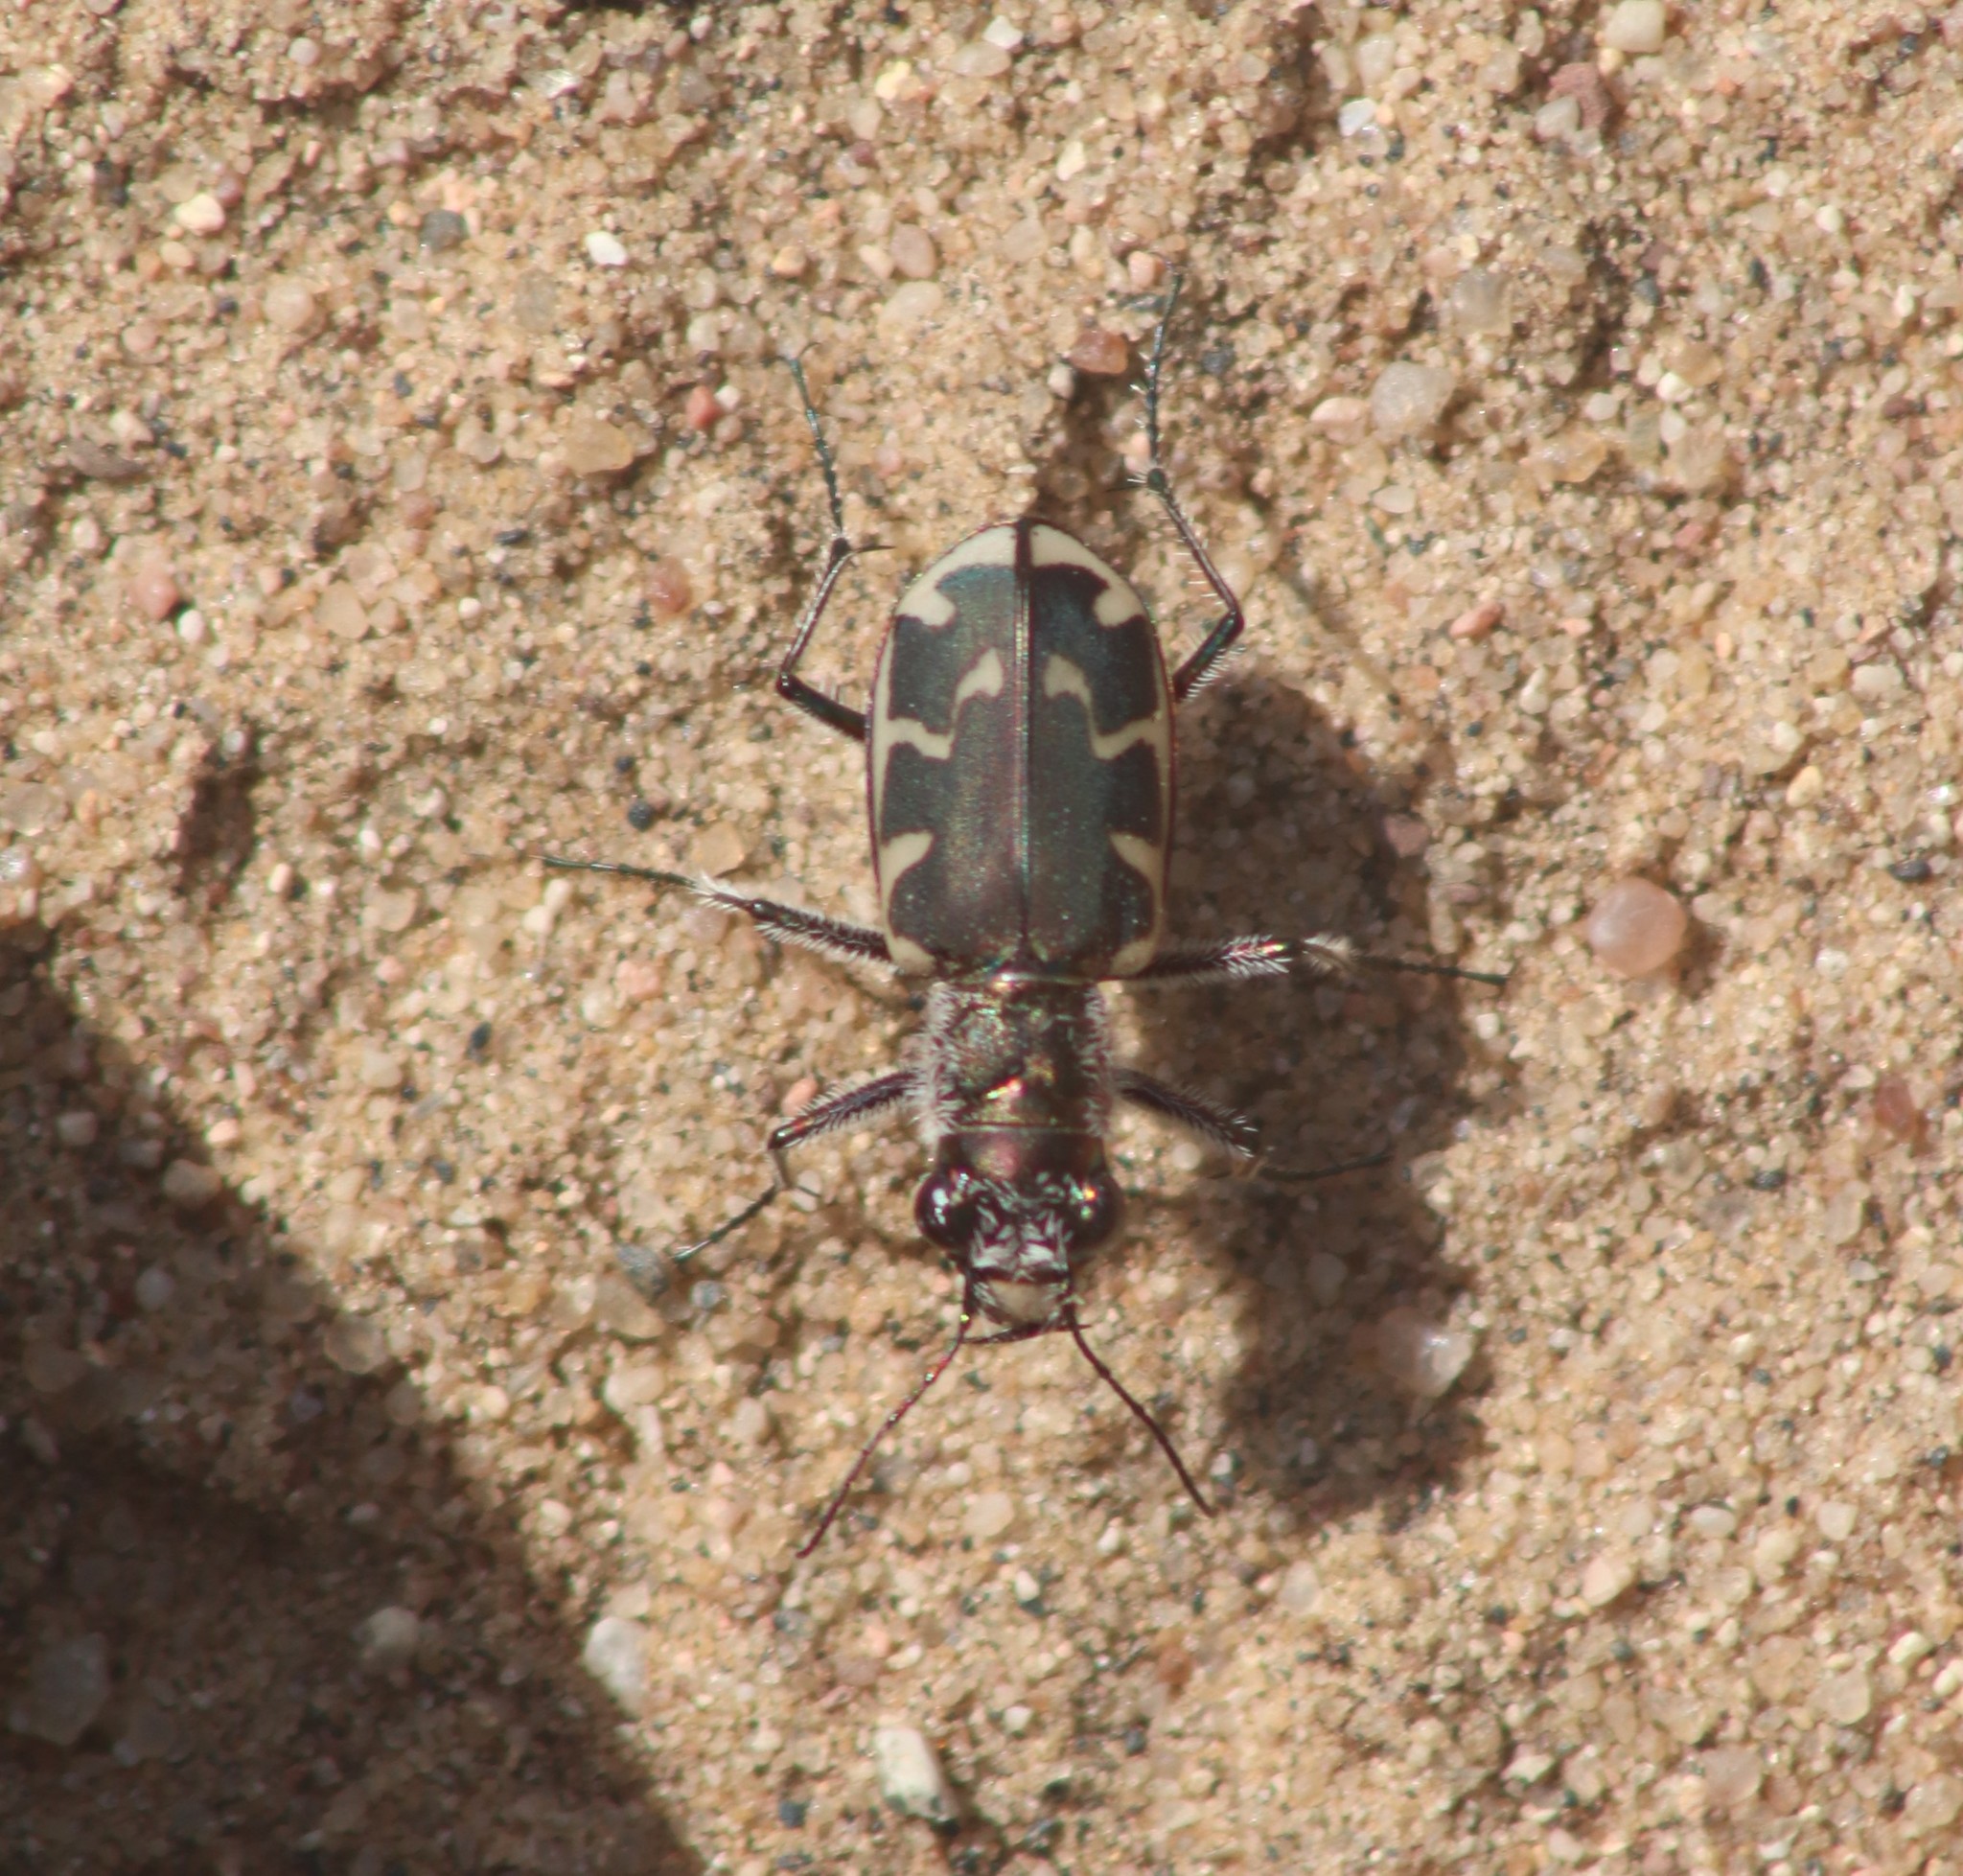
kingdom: Animalia
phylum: Arthropoda
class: Insecta
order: Coleoptera
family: Carabidae
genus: Cicindela
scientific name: Cicindela formosa
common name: Big sand tiger beetle
